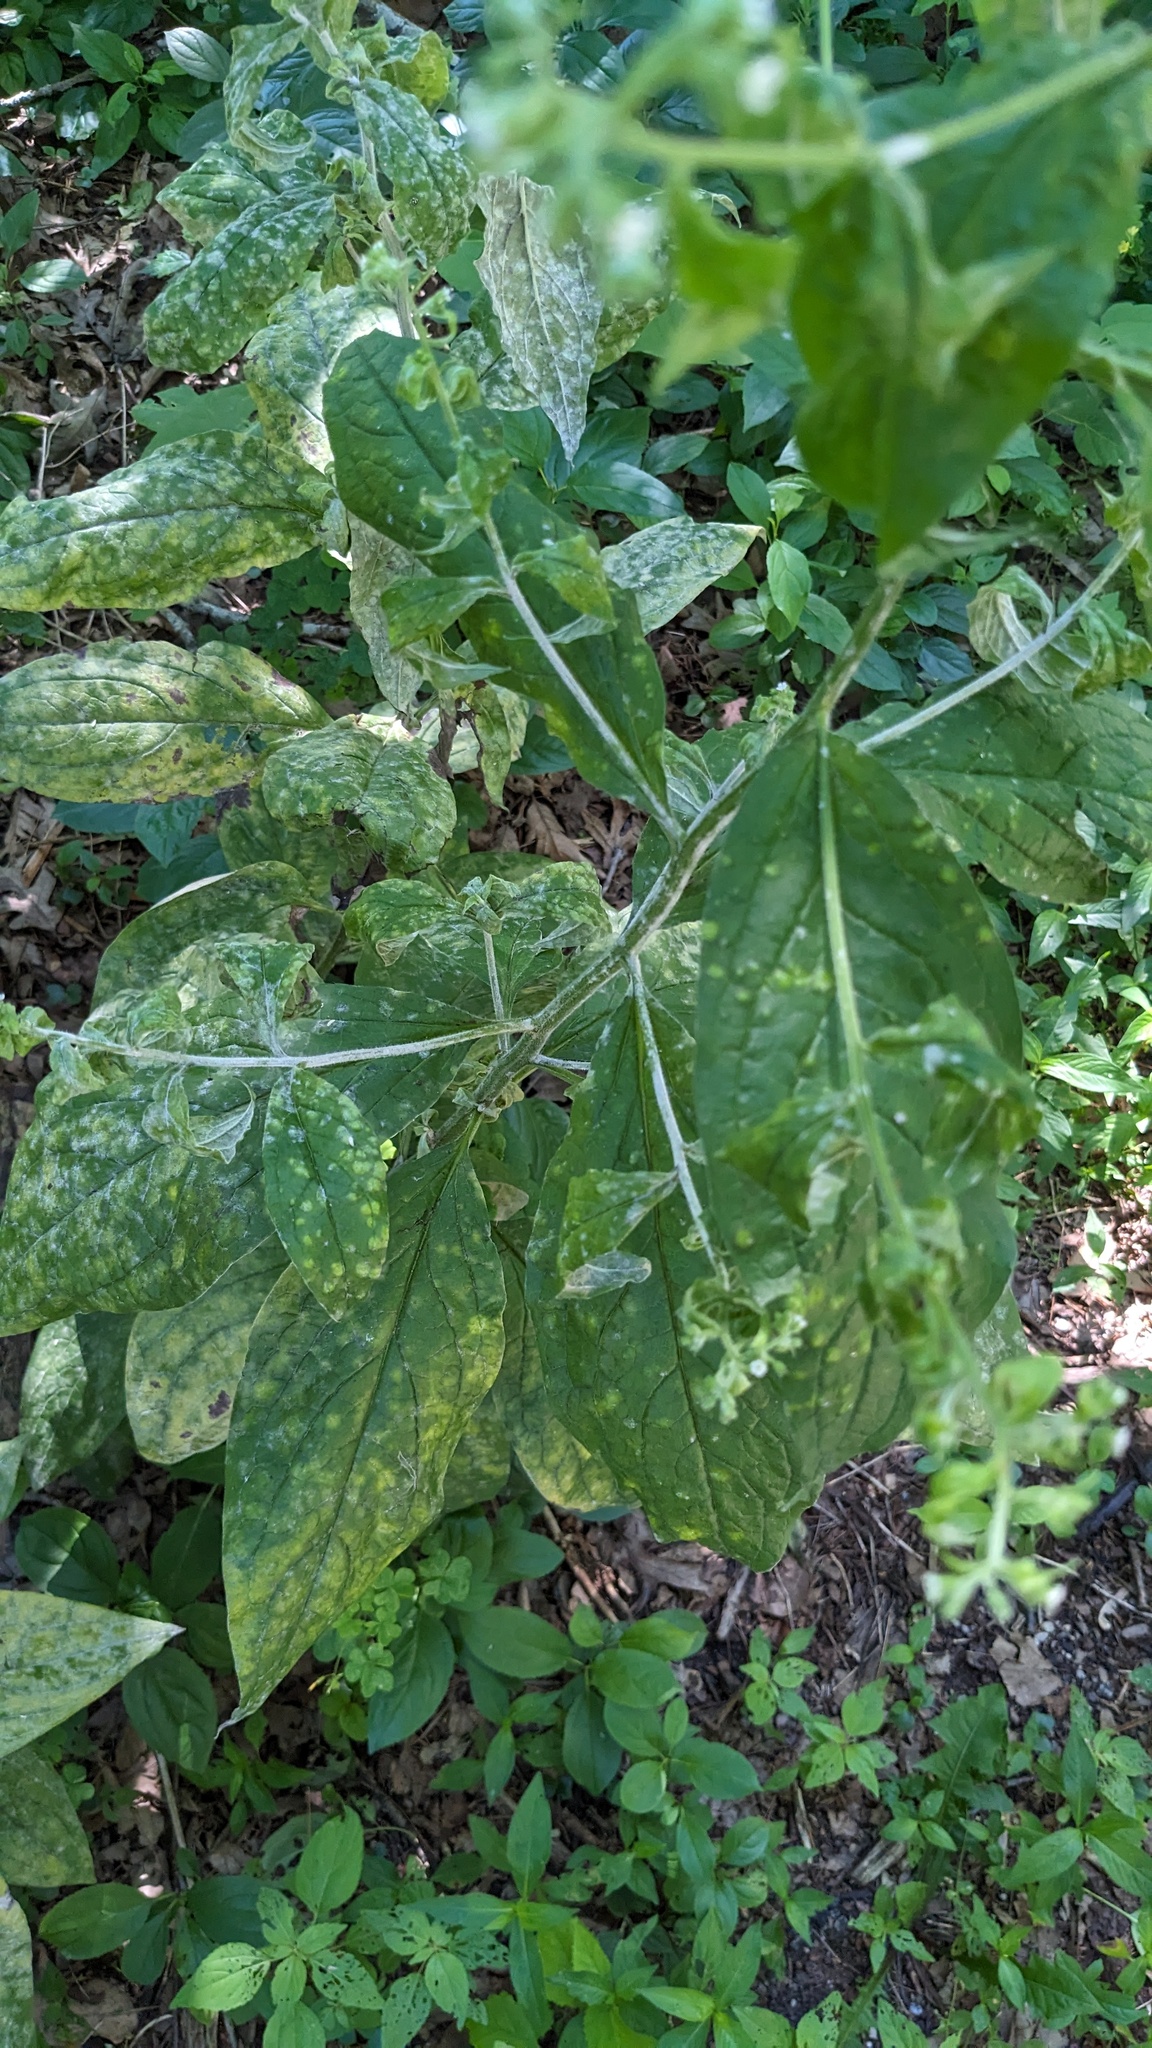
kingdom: Plantae
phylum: Tracheophyta
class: Magnoliopsida
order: Boraginales
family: Boraginaceae
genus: Hackelia
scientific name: Hackelia virginiana
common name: Beggar's-lice
